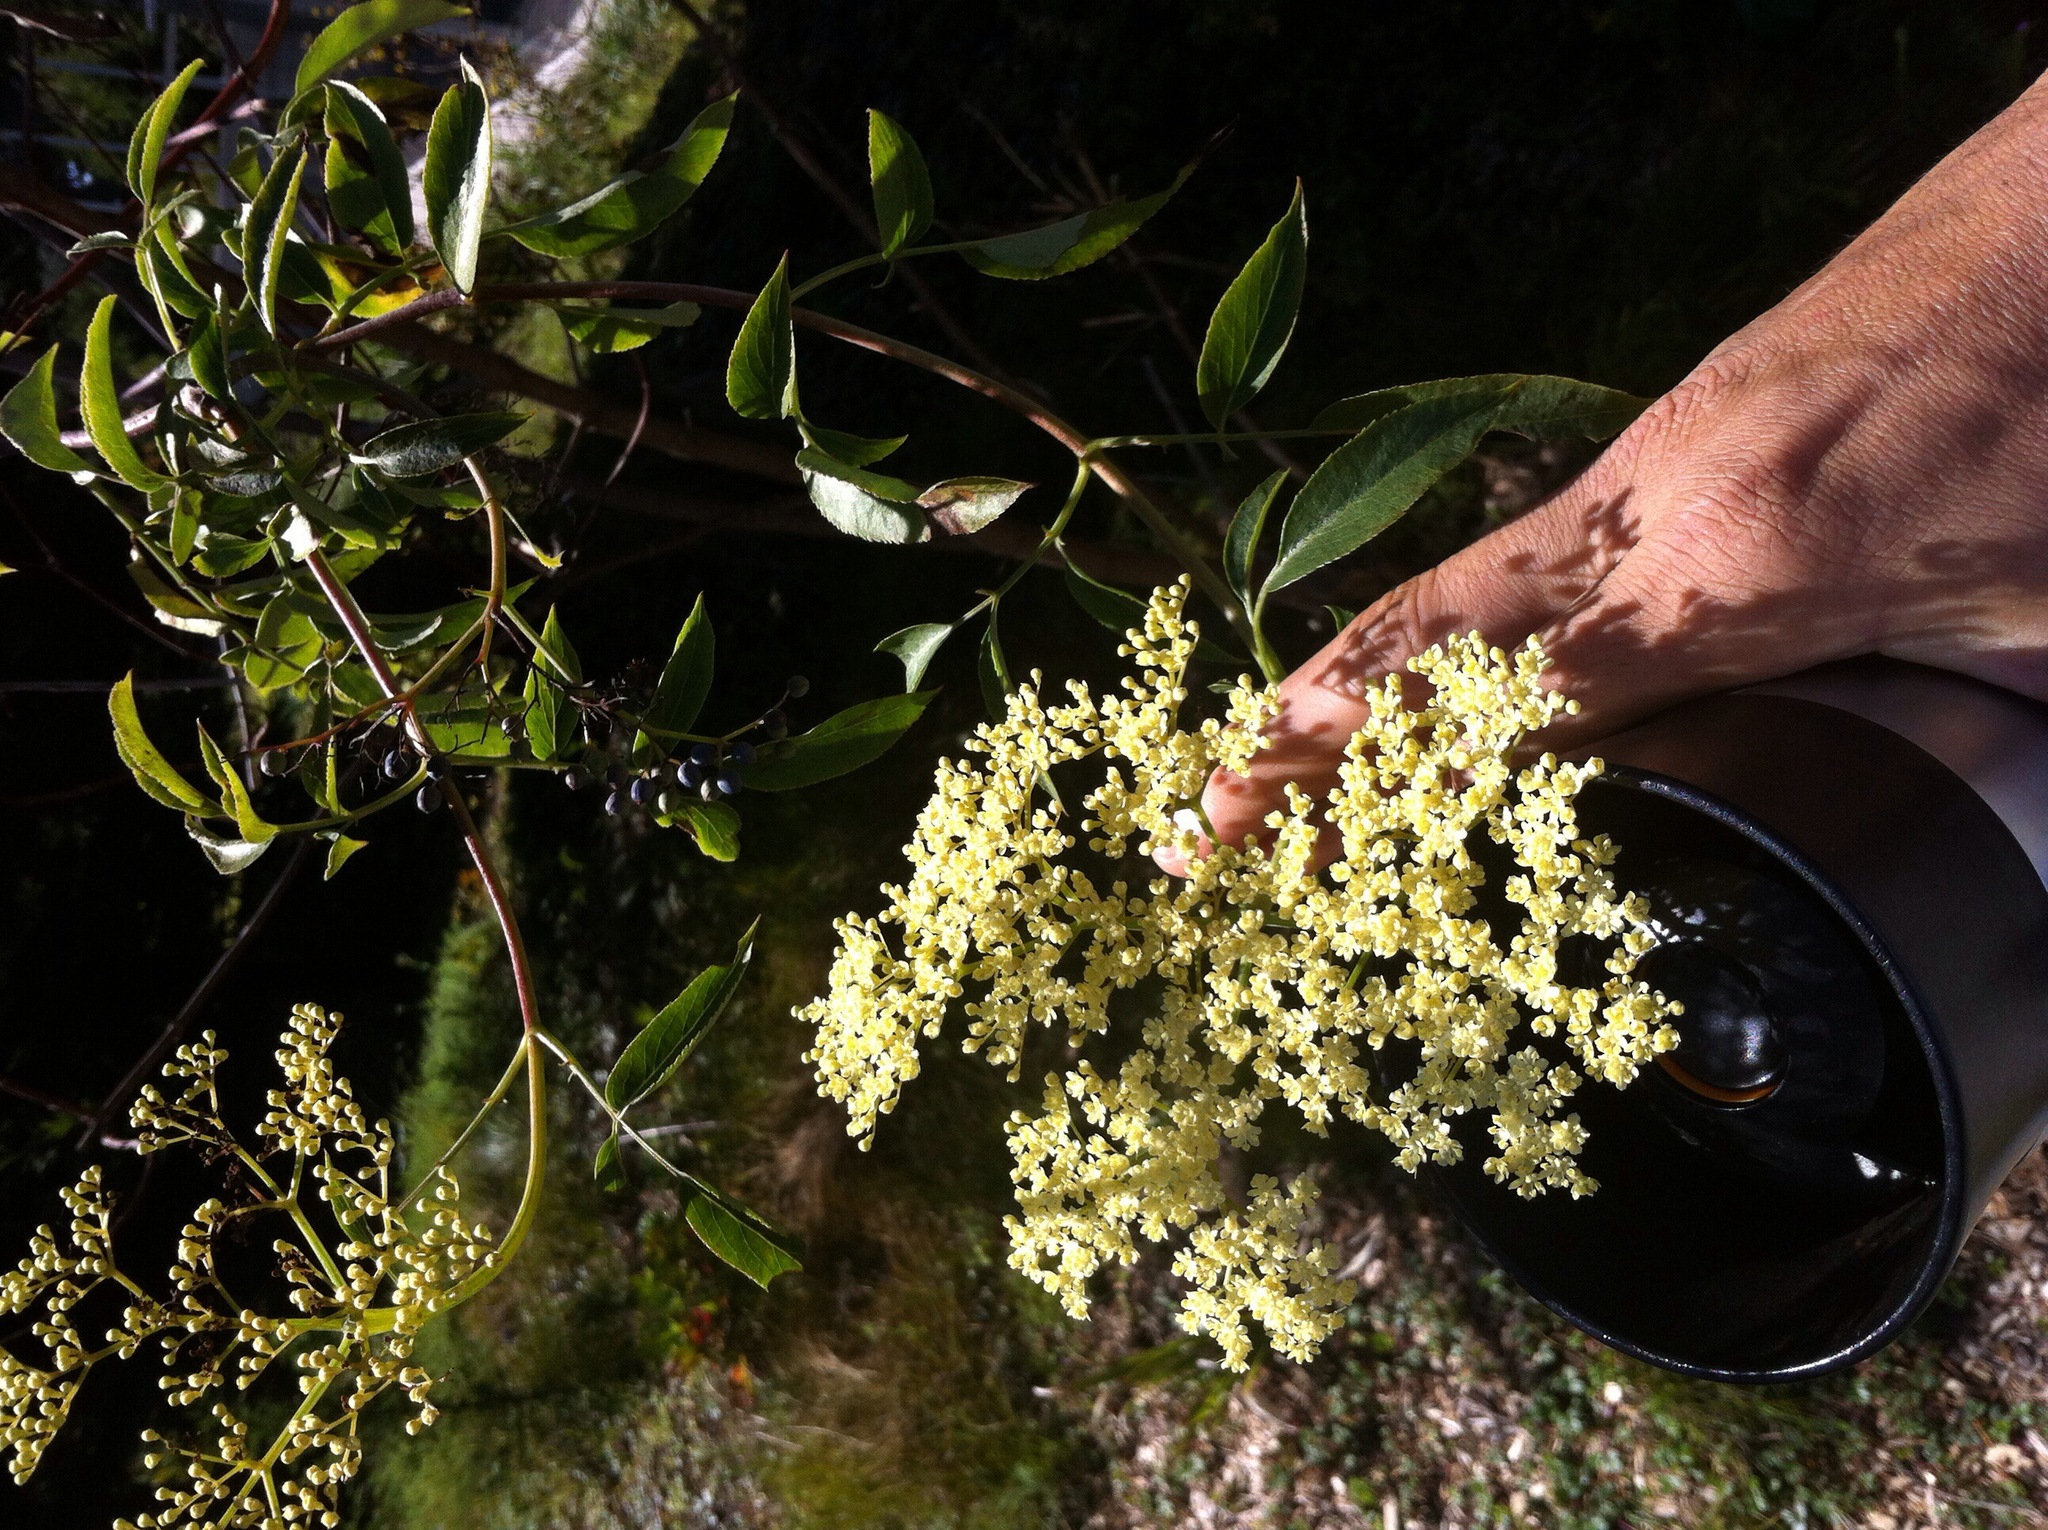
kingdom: Plantae
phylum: Tracheophyta
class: Magnoliopsida
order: Dipsacales
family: Viburnaceae
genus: Sambucus
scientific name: Sambucus cerulea
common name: Blue elder
